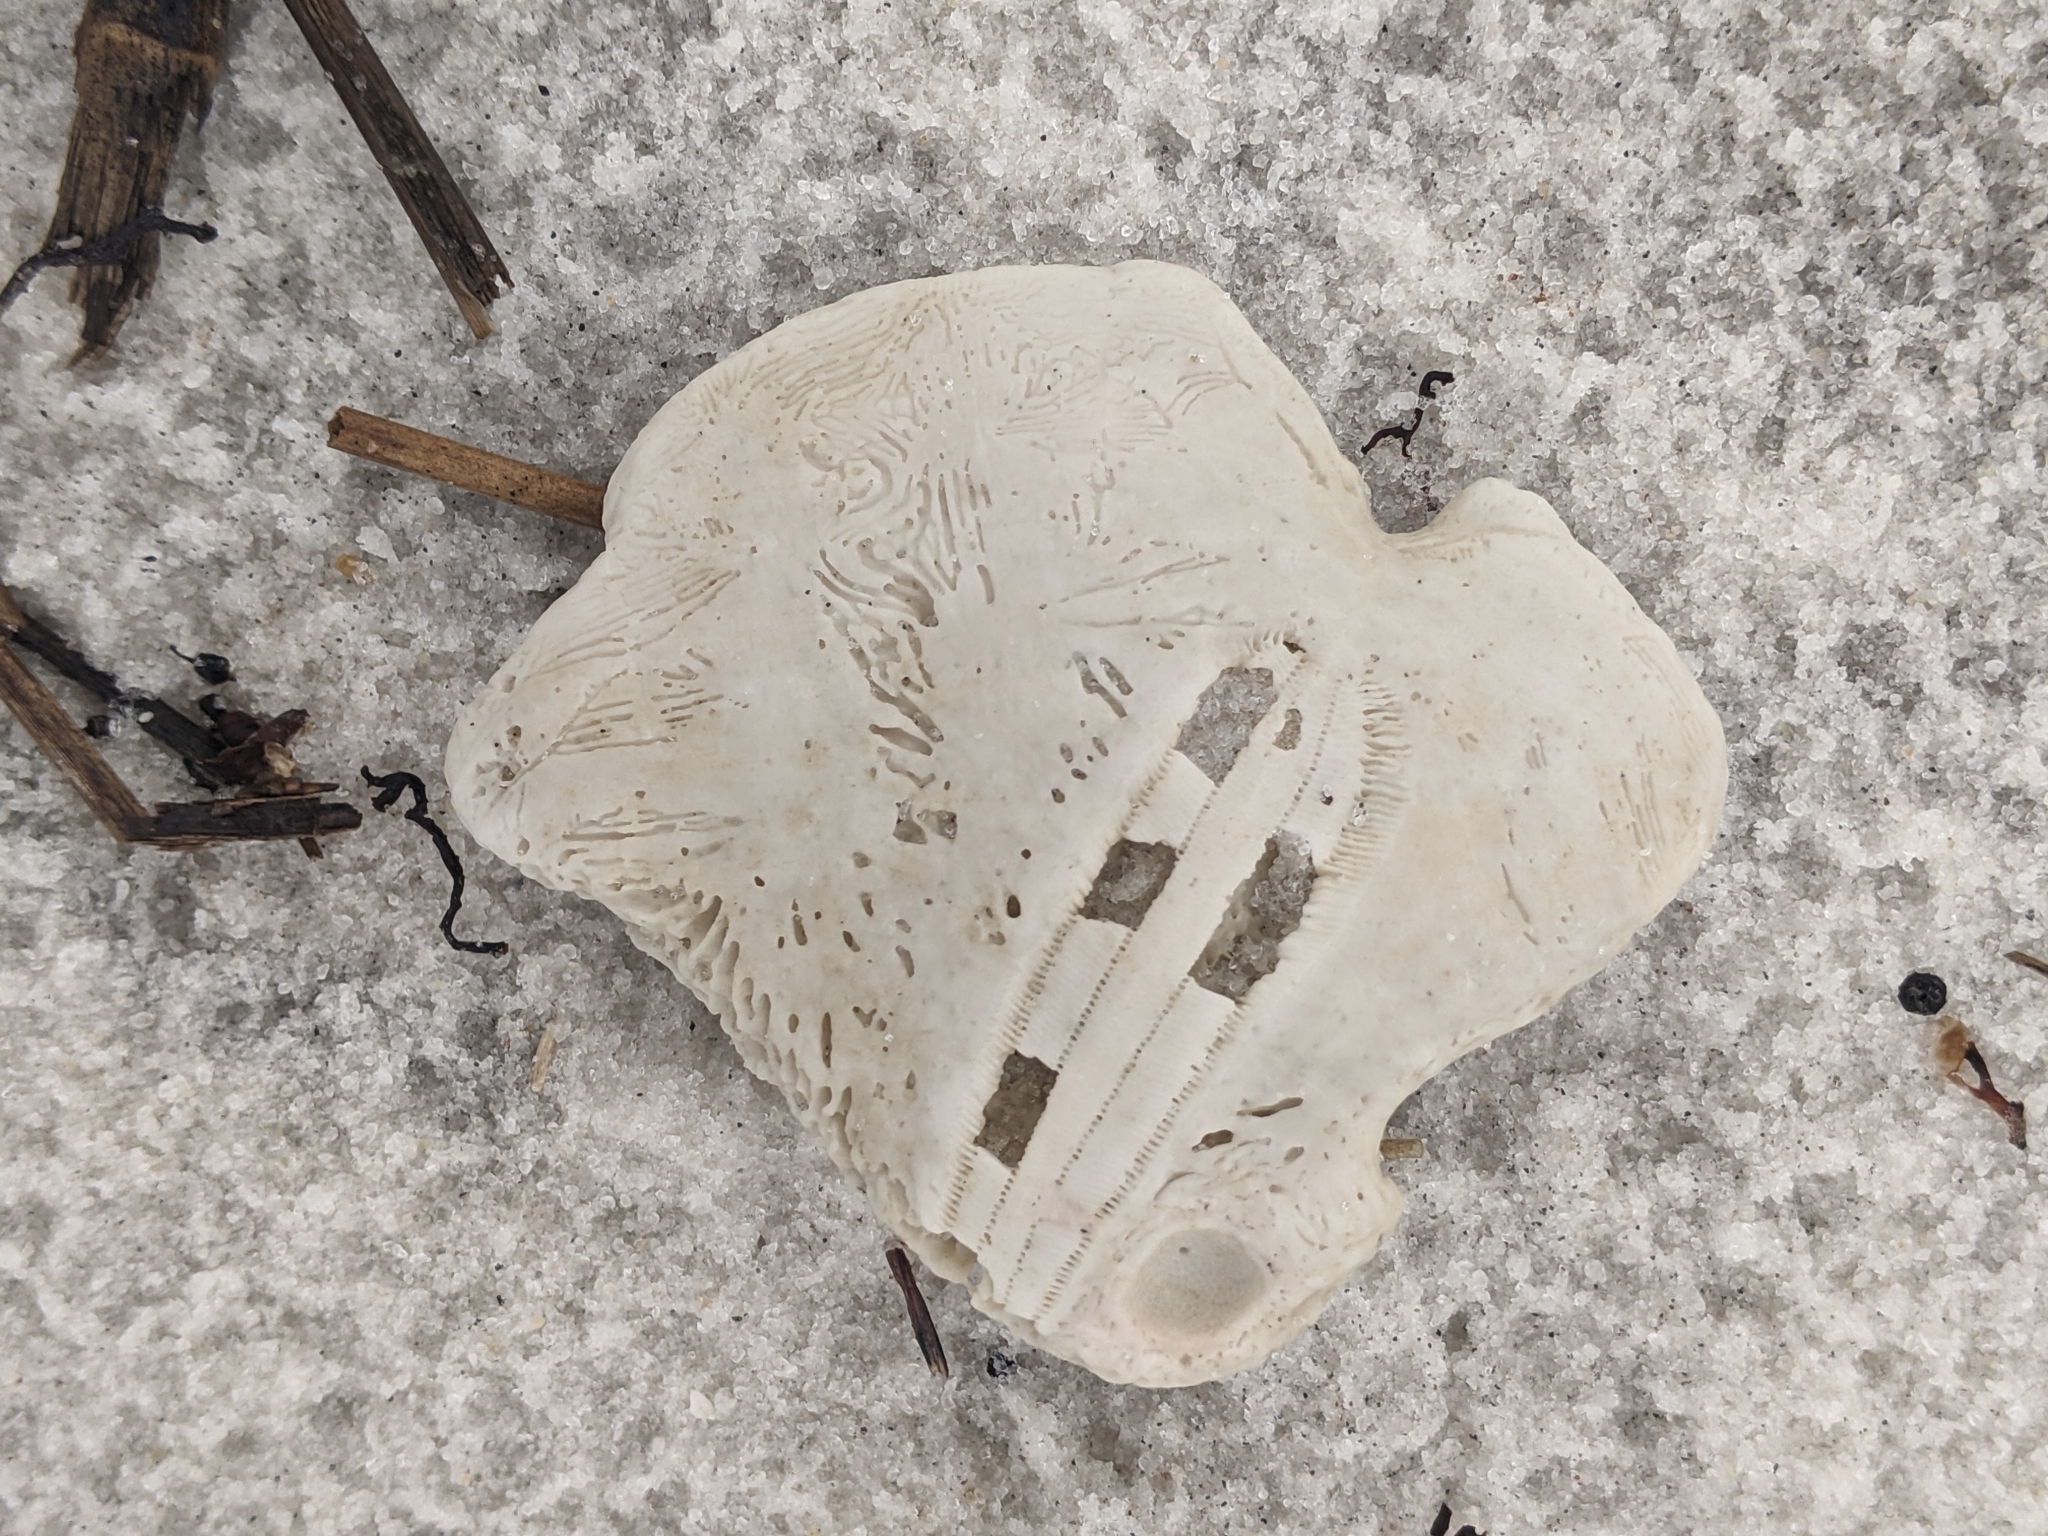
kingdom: Animalia
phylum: Echinodermata
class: Echinoidea
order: Echinolampadacea
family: Mellitidae
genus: Mellita
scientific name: Mellita quinquiesperforata
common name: Sand dollar
